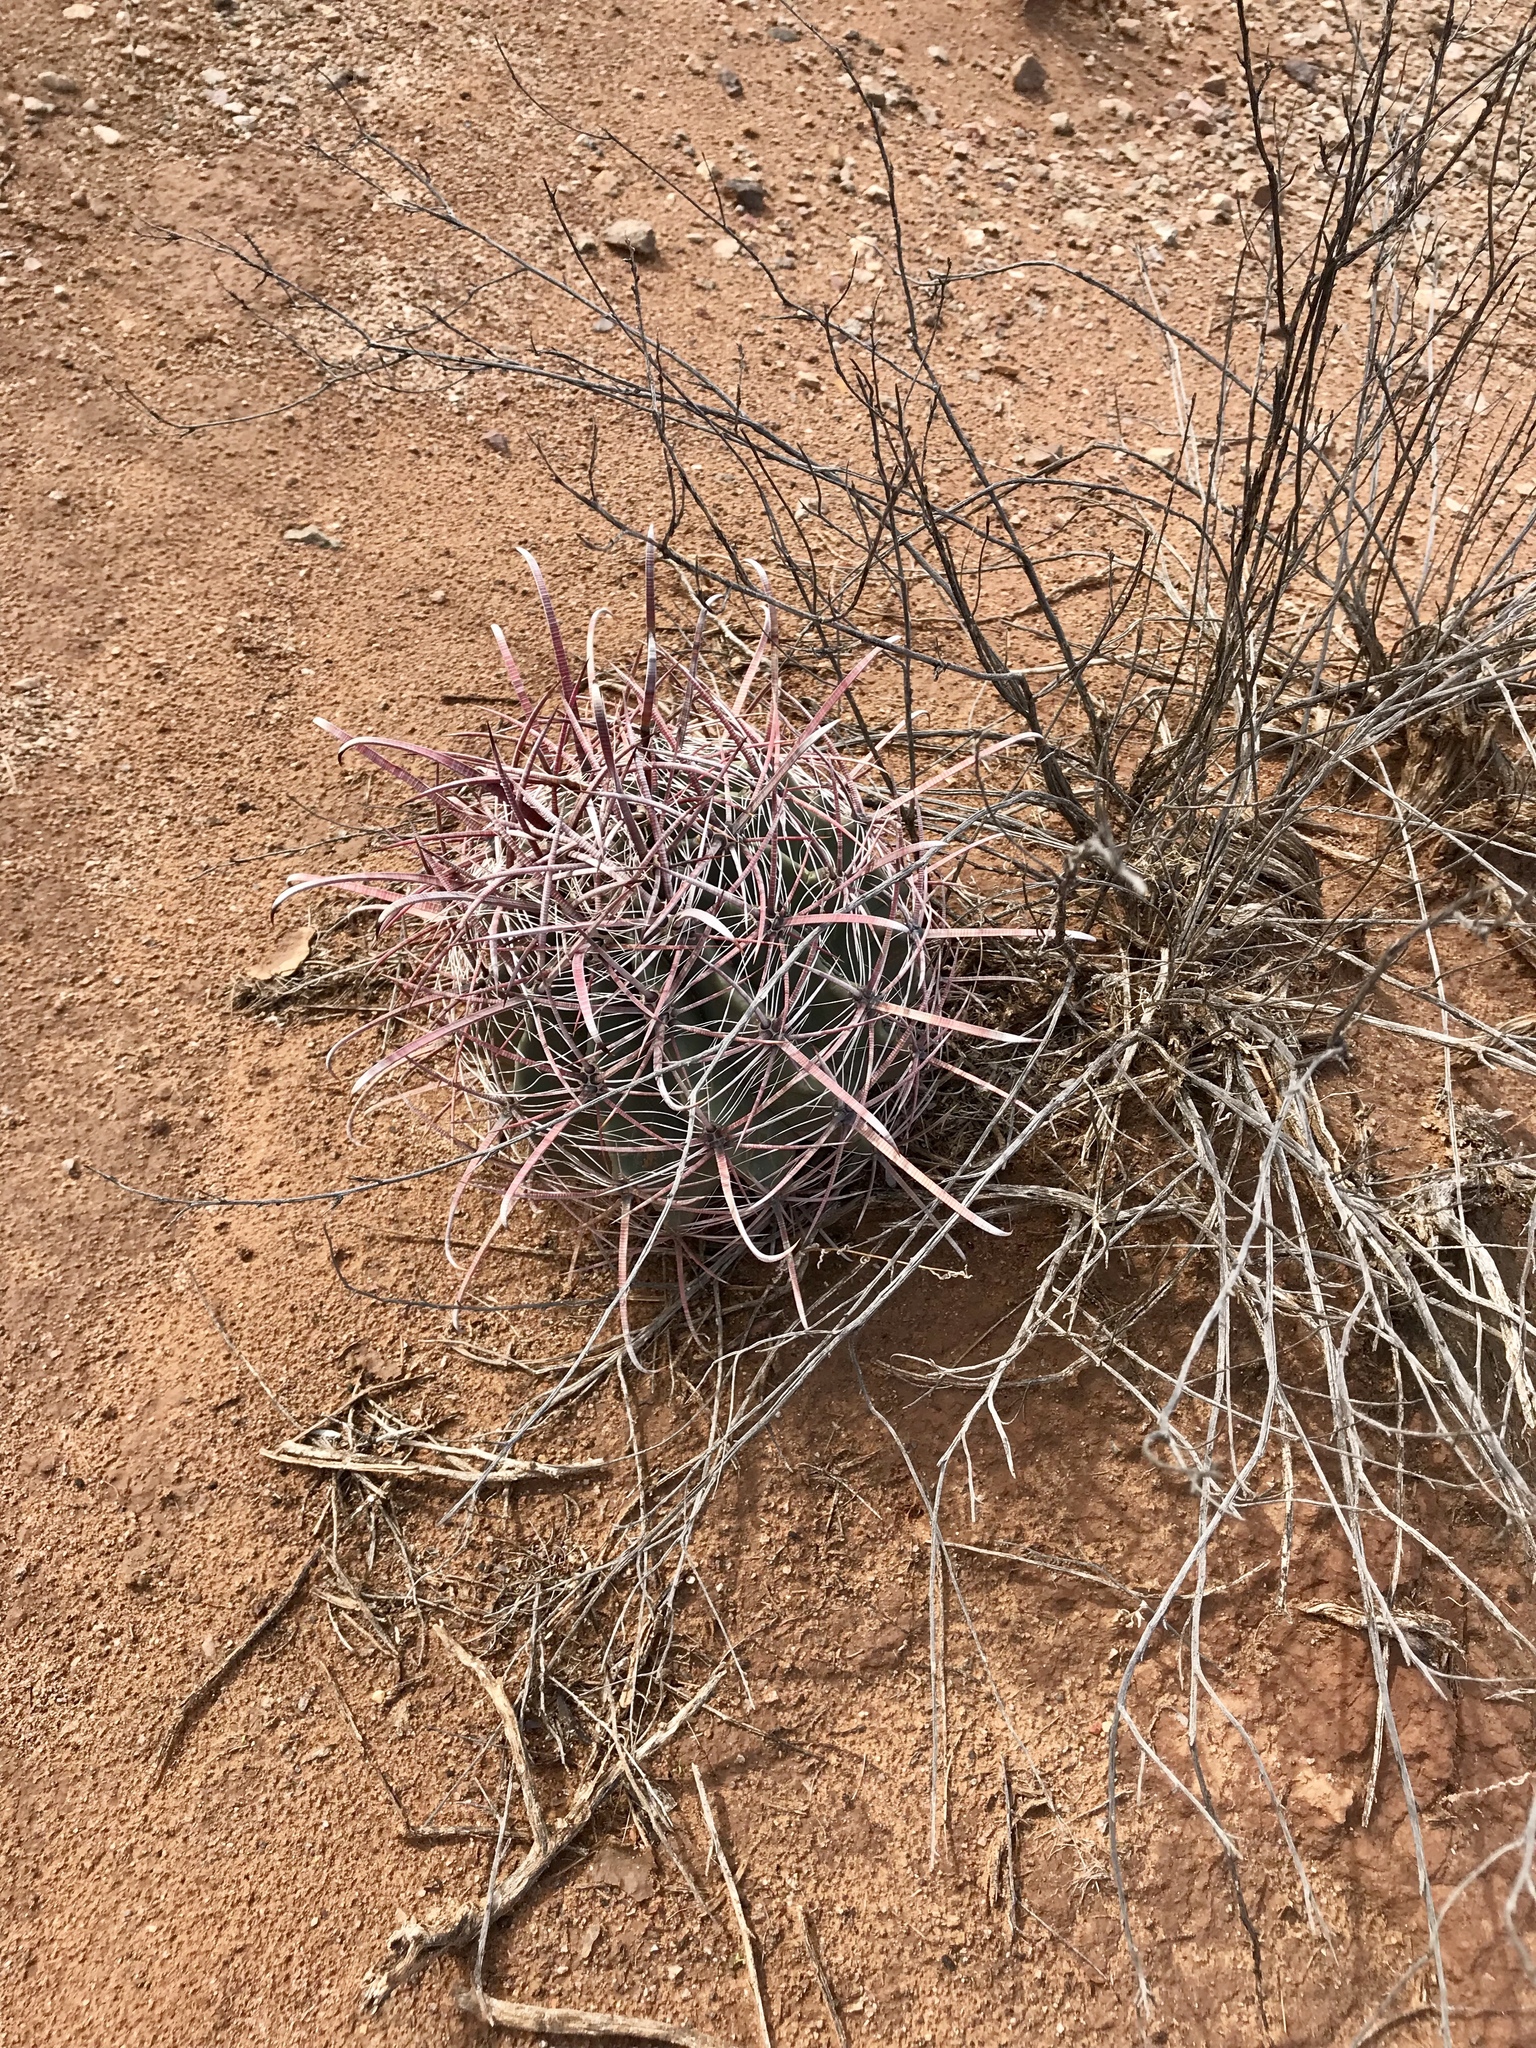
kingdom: Plantae
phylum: Tracheophyta
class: Magnoliopsida
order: Caryophyllales
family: Cactaceae
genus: Ferocactus
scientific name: Ferocactus wislizeni
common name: Candy barrel cactus
